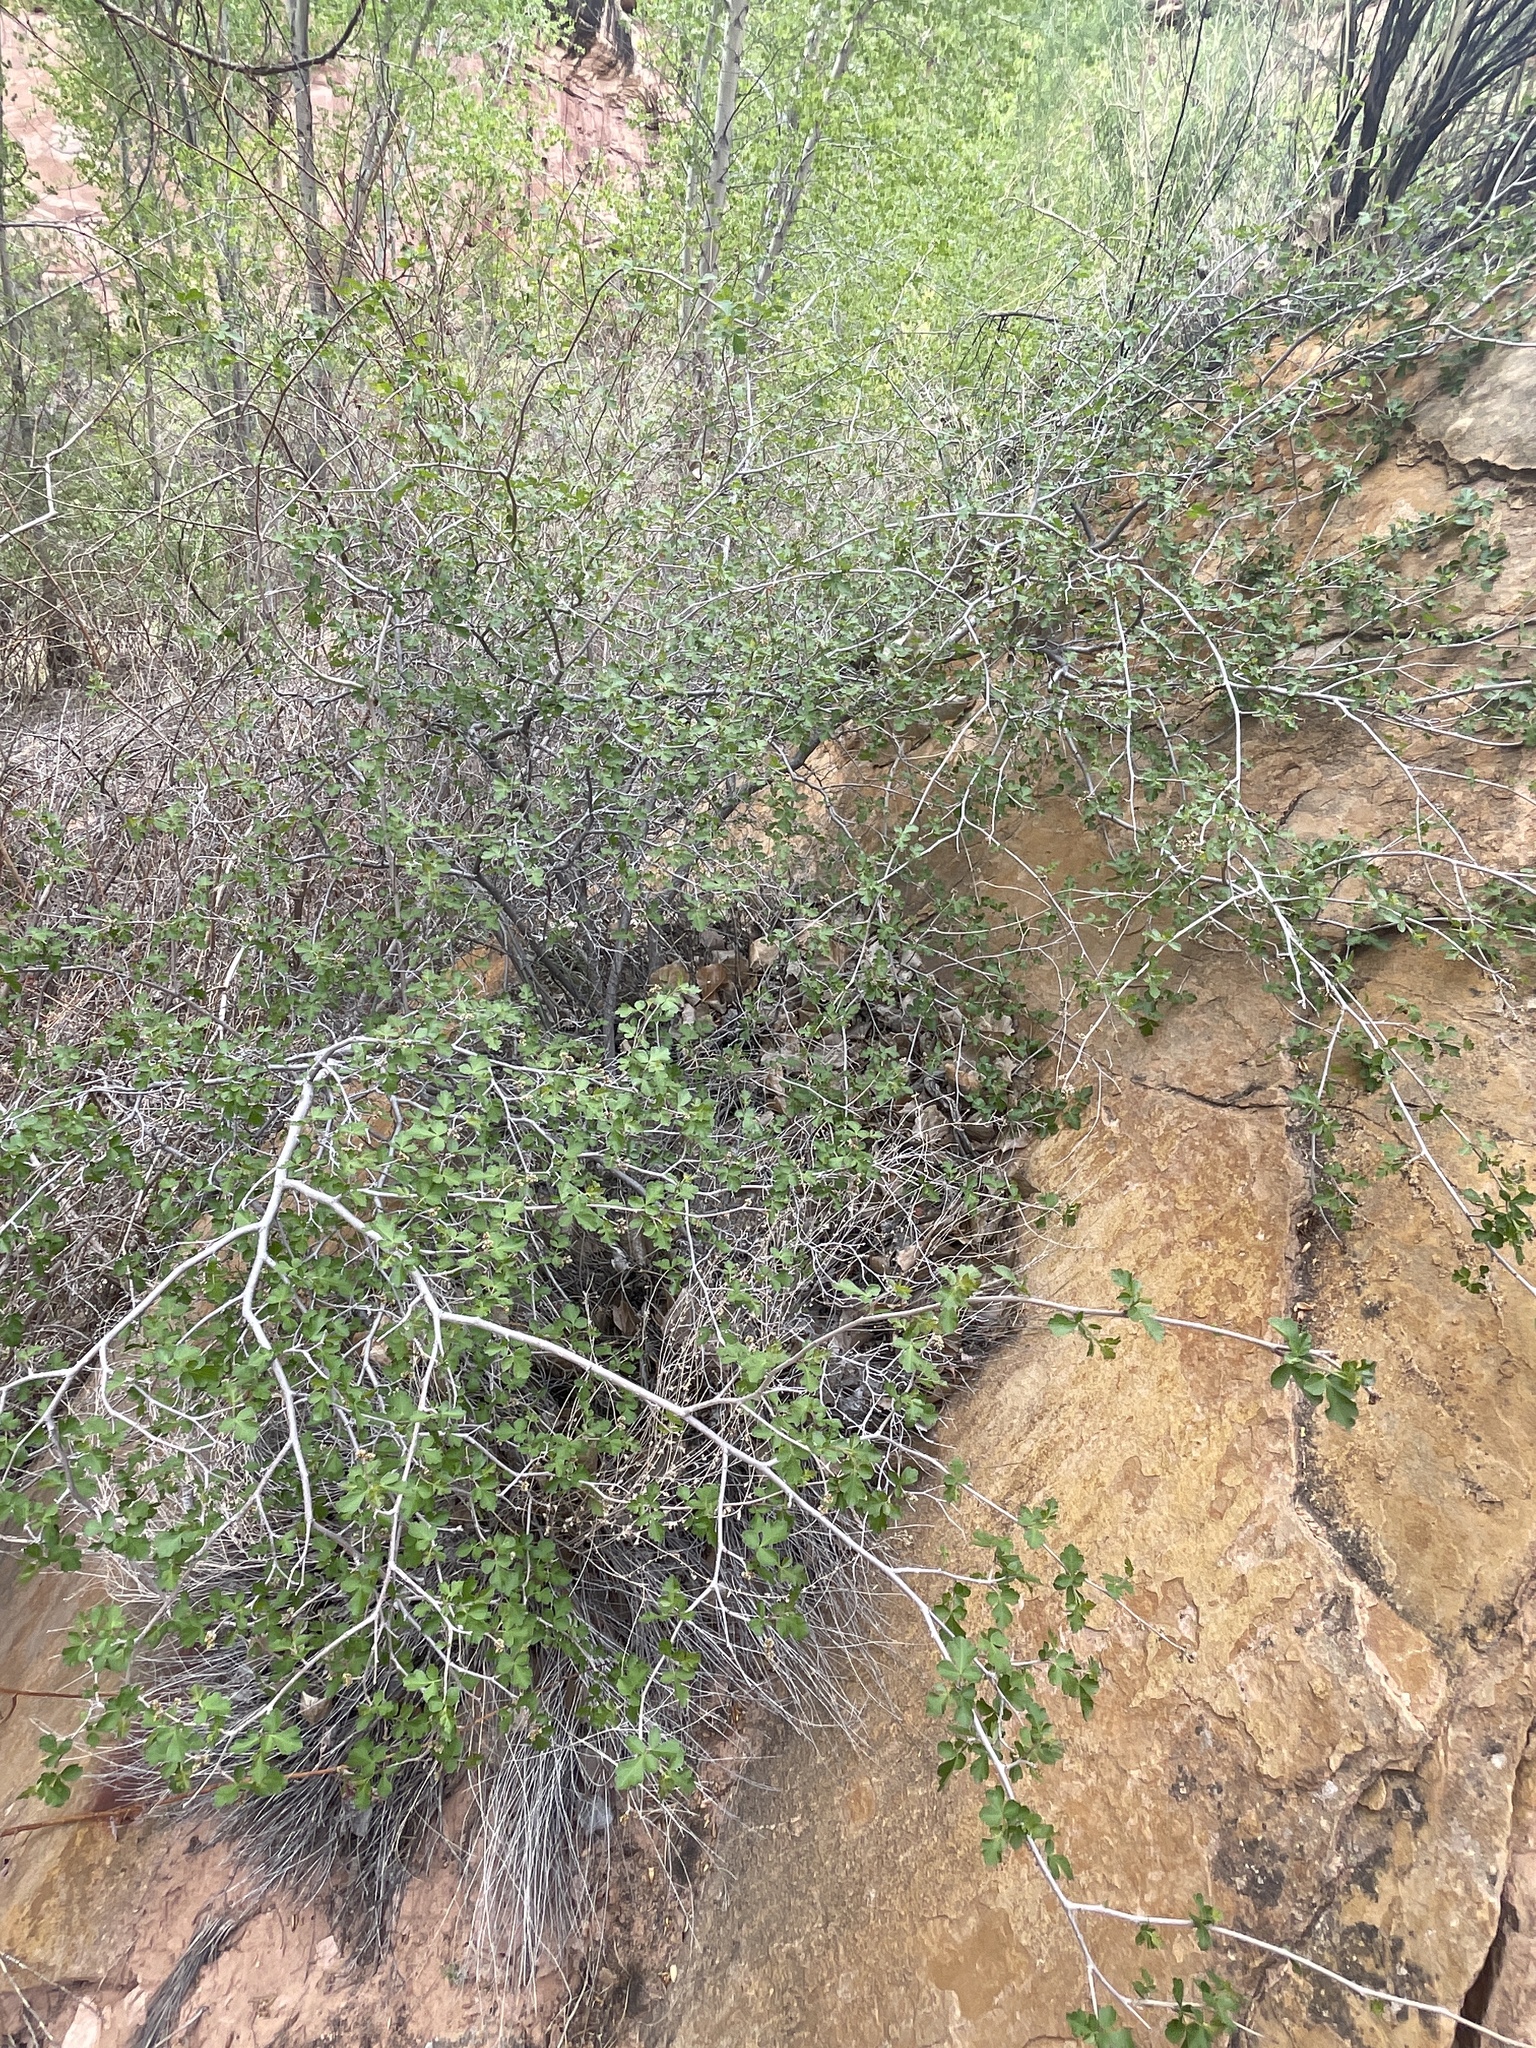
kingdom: Plantae
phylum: Tracheophyta
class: Magnoliopsida
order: Sapindales
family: Anacardiaceae
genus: Rhus
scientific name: Rhus aromatica
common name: Aromatic sumac
